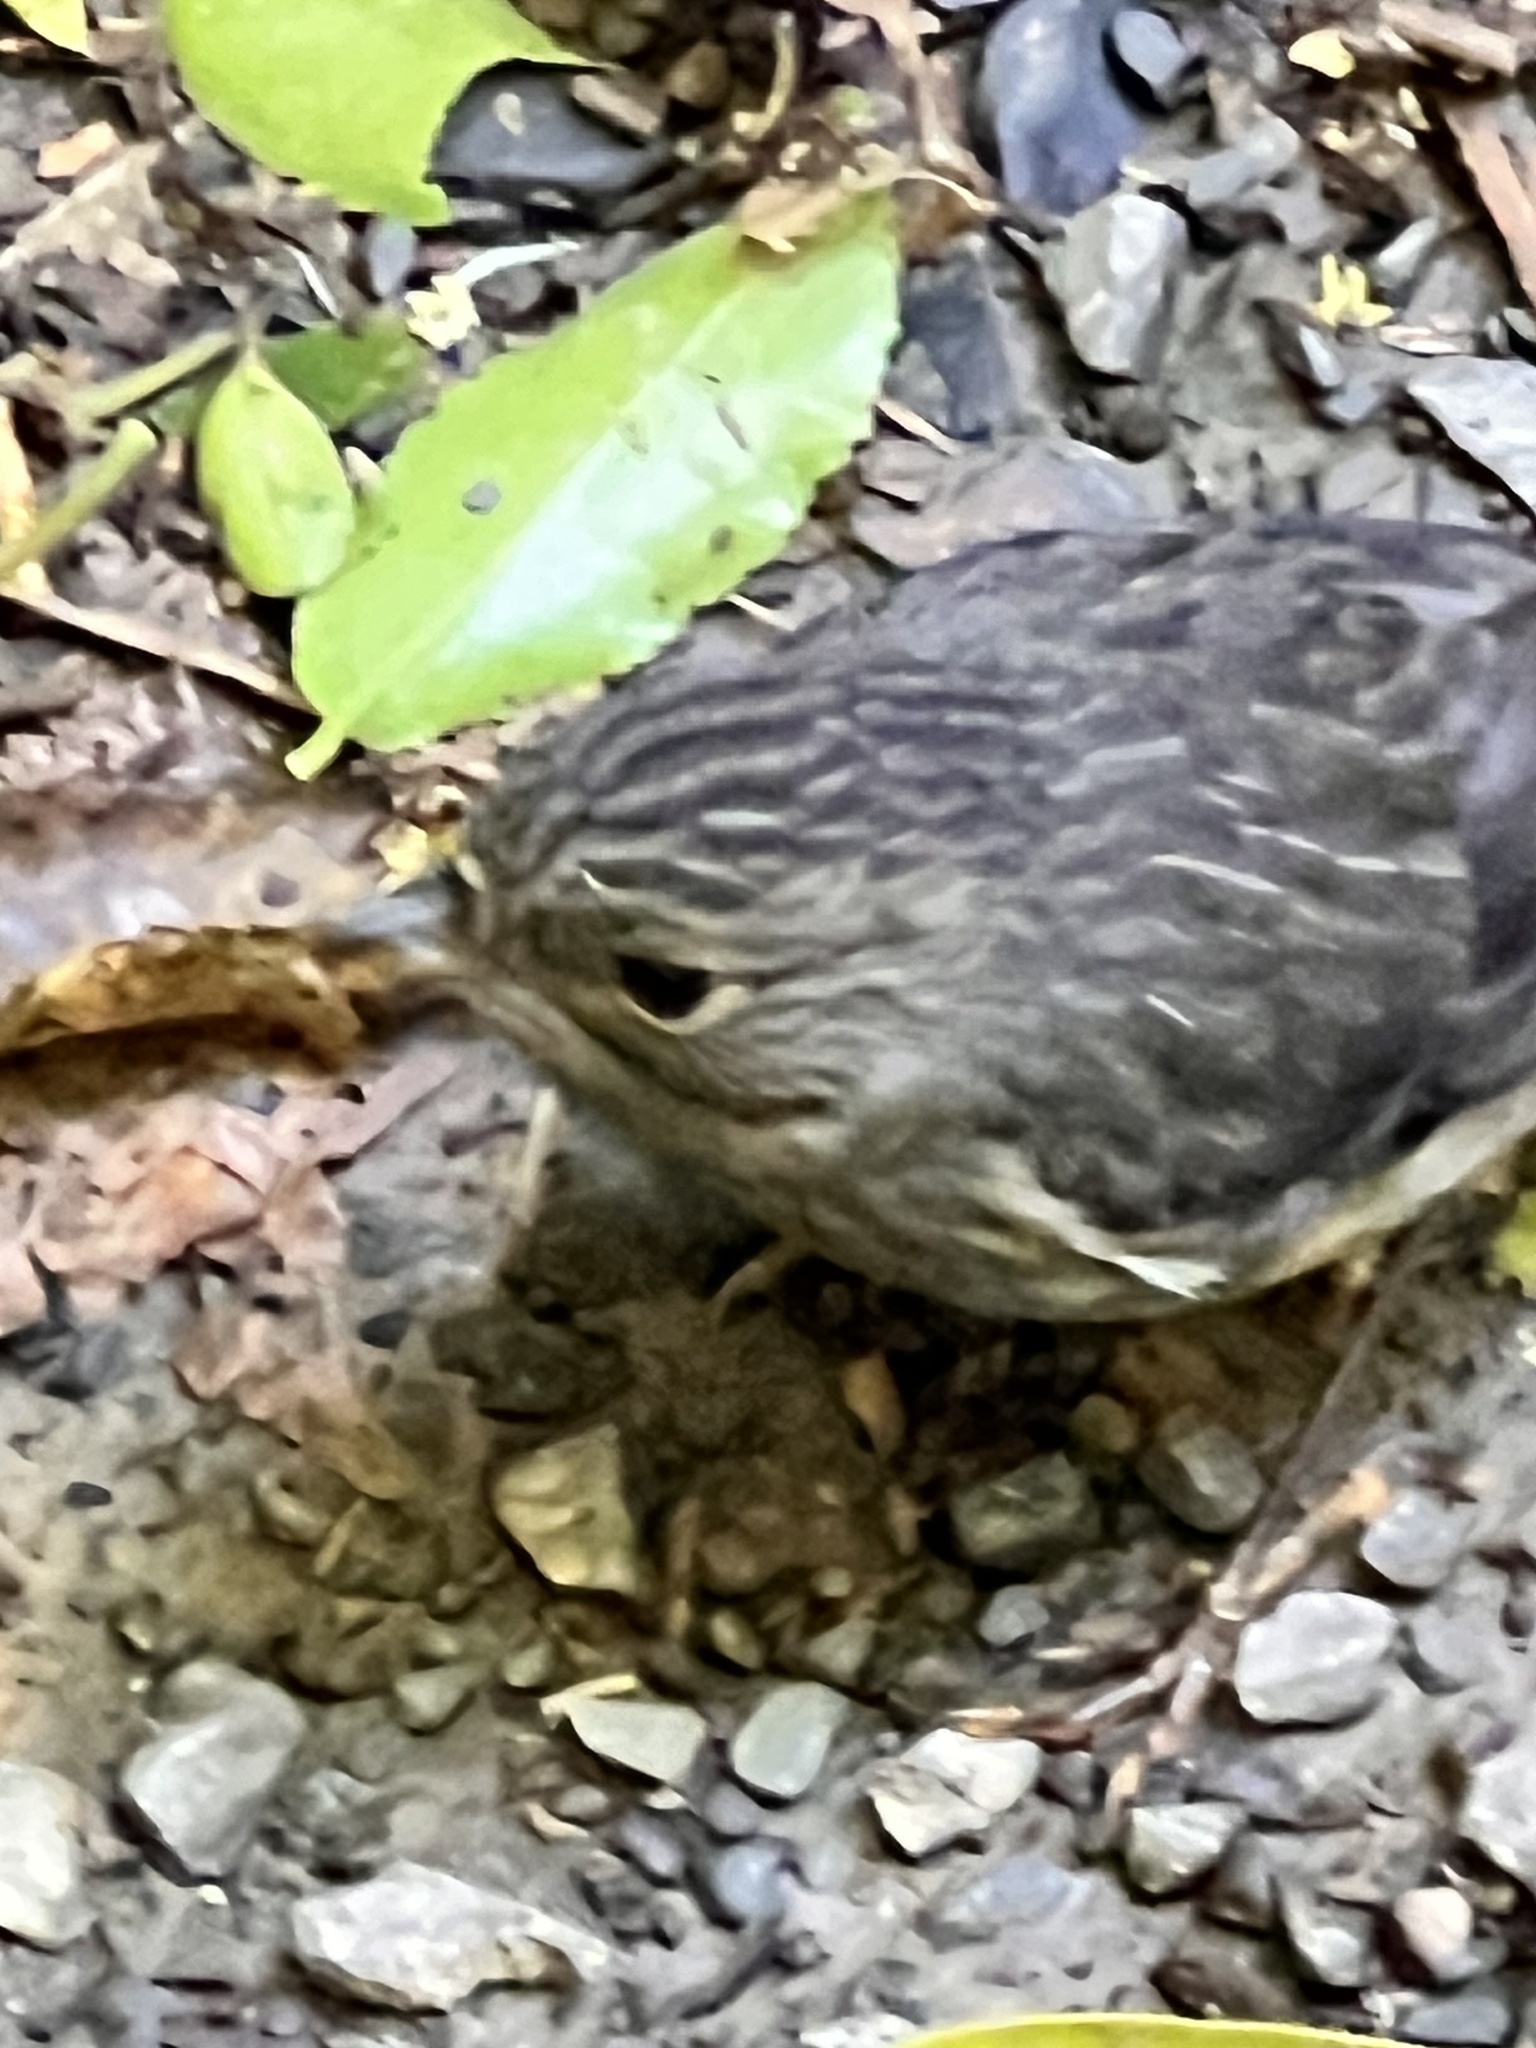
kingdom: Animalia
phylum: Chordata
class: Aves
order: Passeriformes
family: Petroicidae
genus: Petroica
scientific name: Petroica australis
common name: New zealand robin
